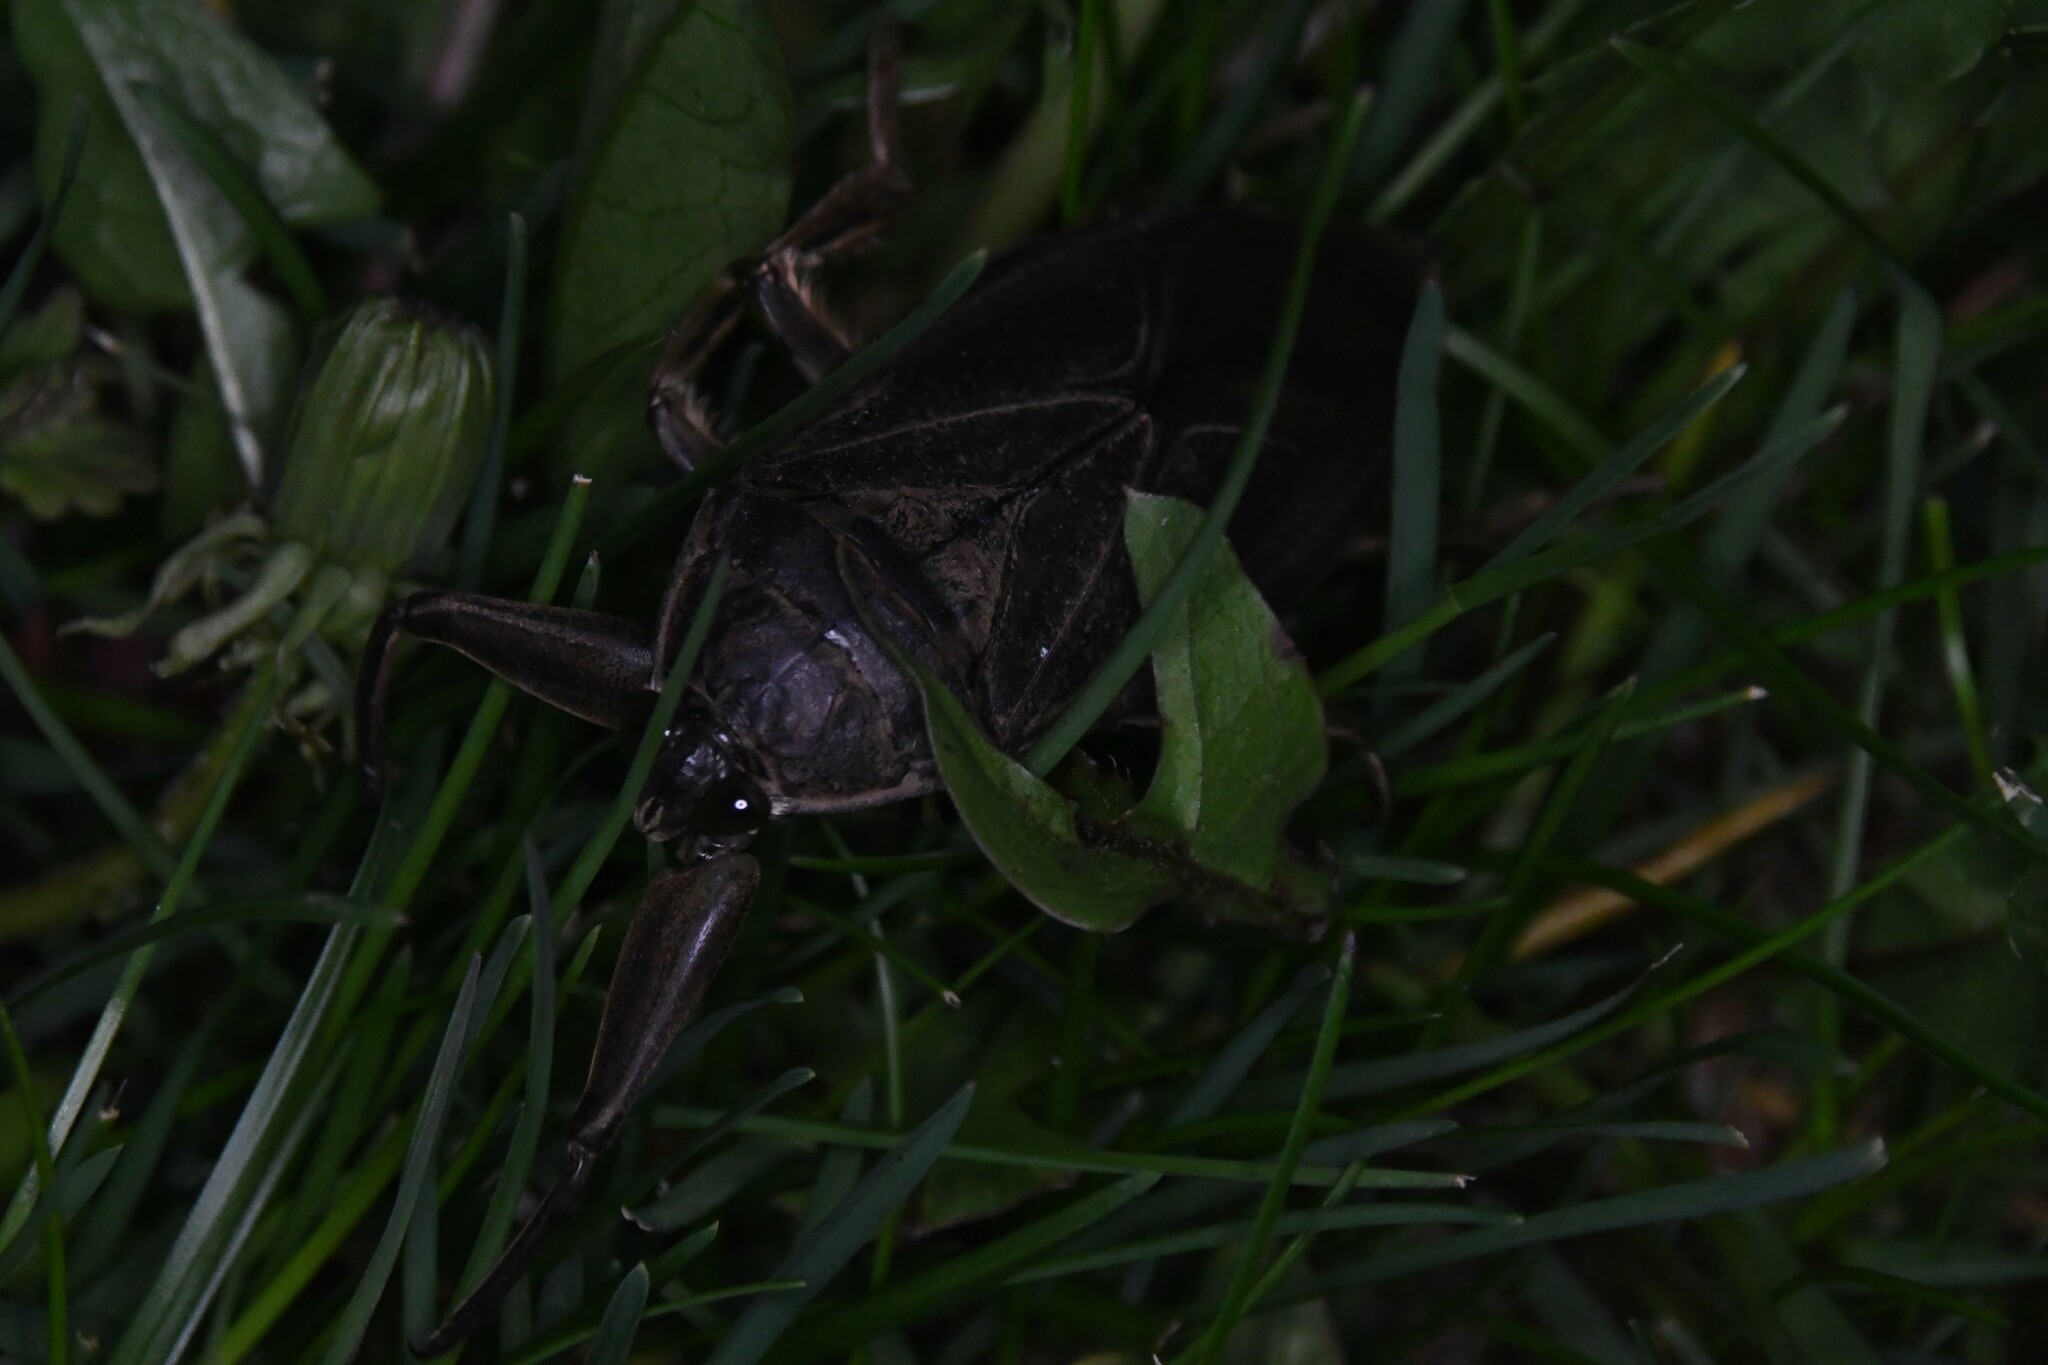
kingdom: Animalia
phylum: Arthropoda
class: Insecta
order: Hemiptera
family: Belostomatidae
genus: Lethocerus
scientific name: Lethocerus americanus
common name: Giant water bug
